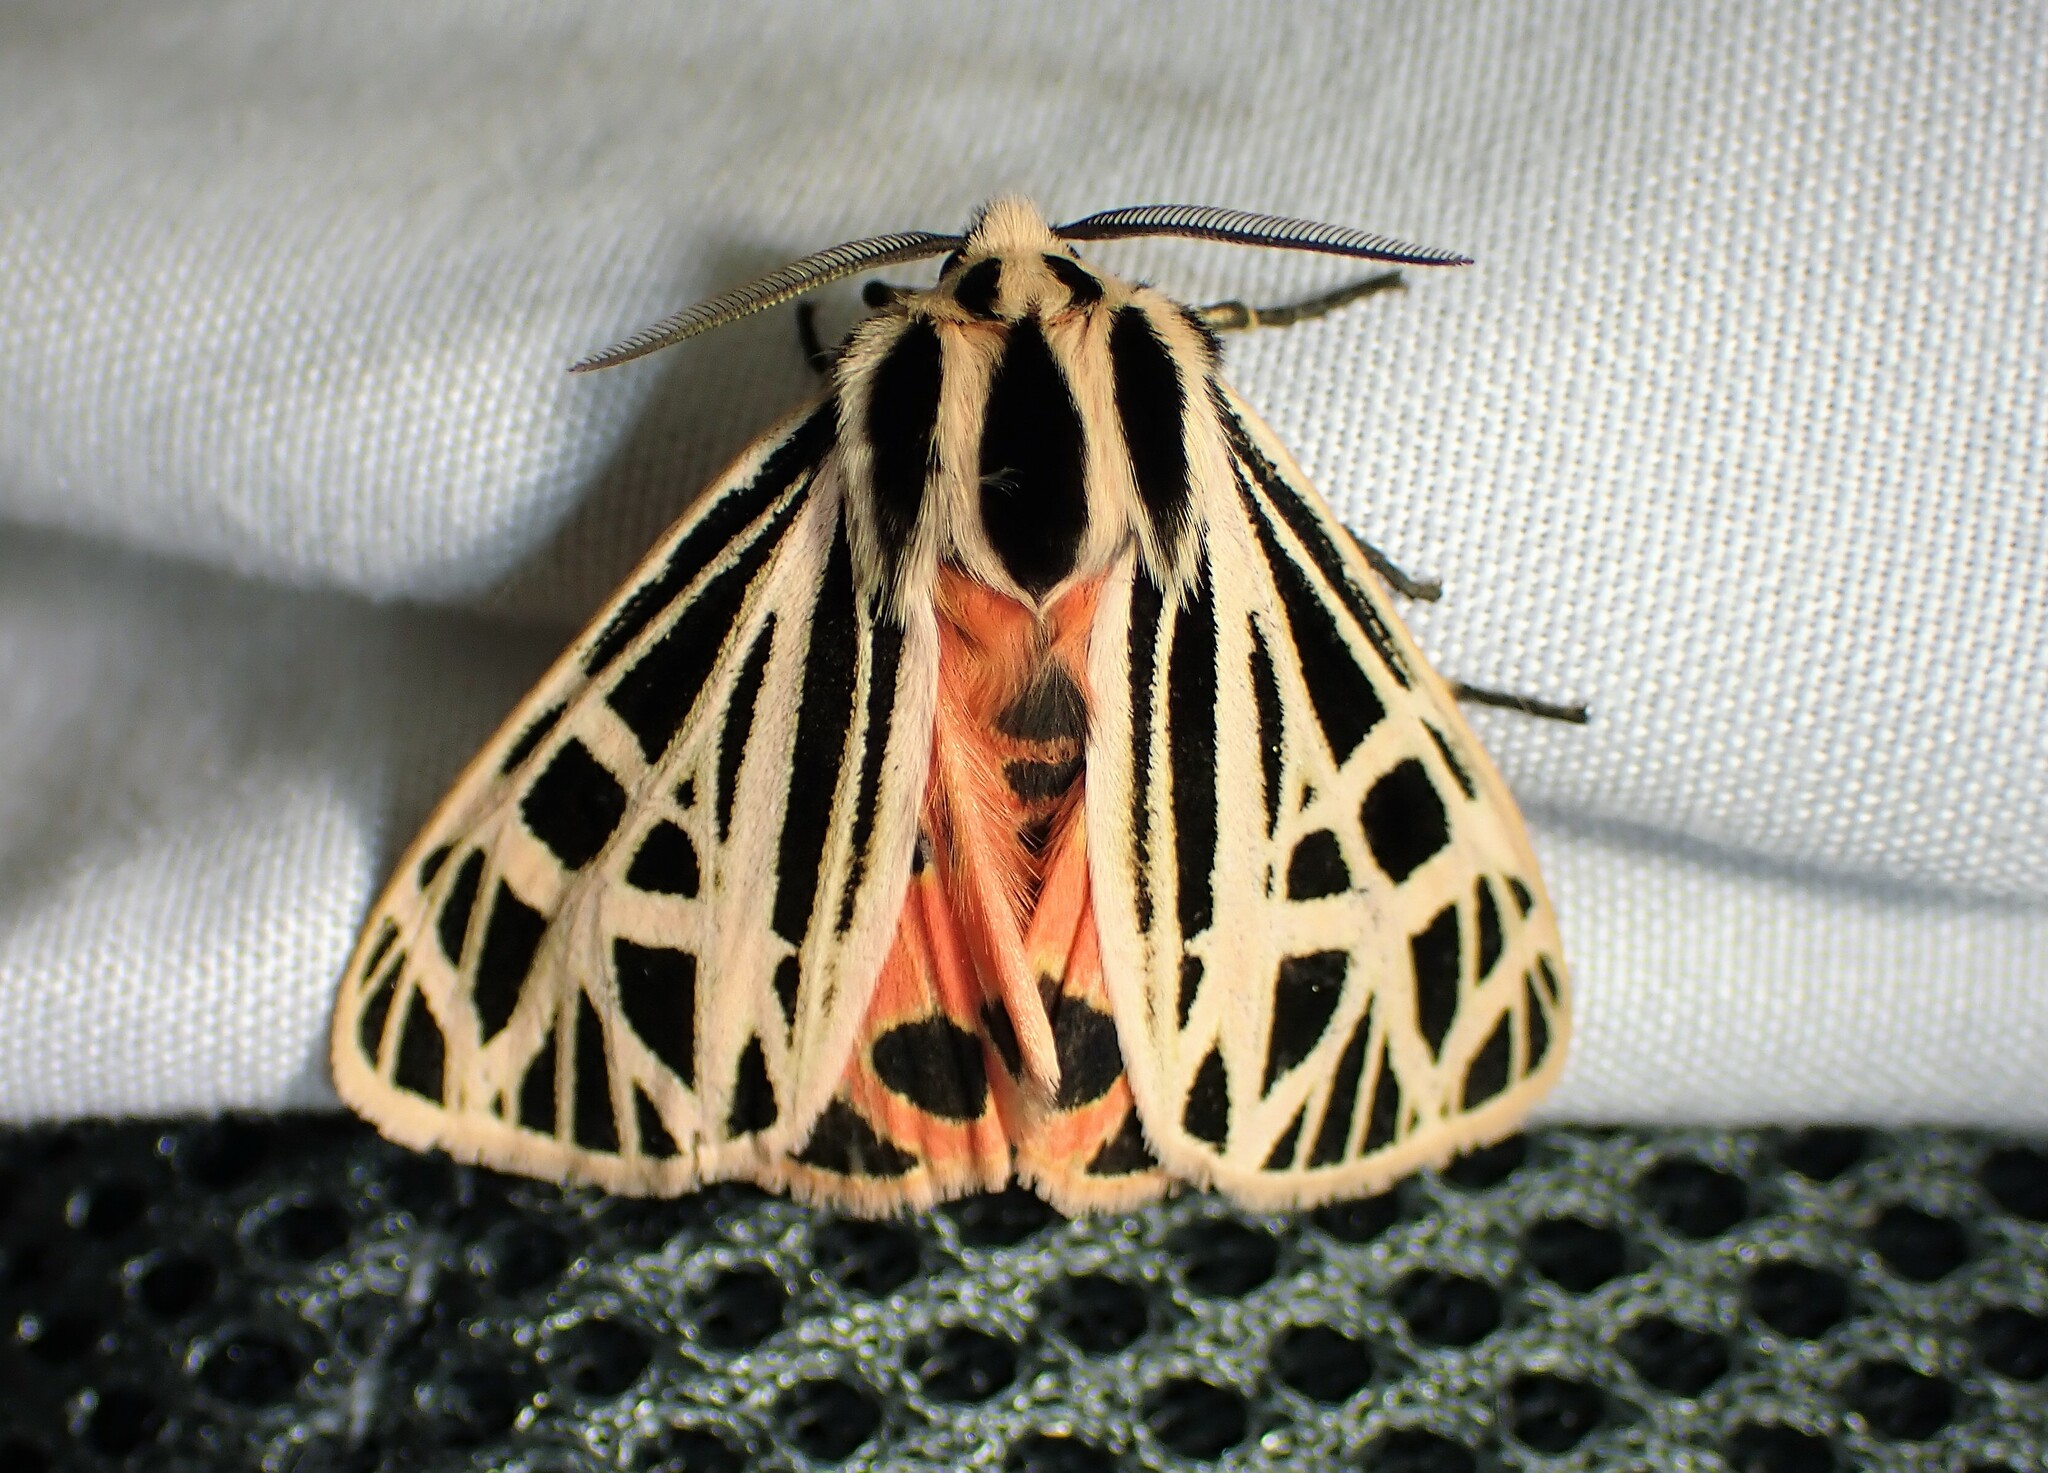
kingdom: Animalia
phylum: Arthropoda
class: Insecta
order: Lepidoptera
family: Erebidae
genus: Grammia
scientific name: Grammia virgo
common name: Virgin tiger moth
